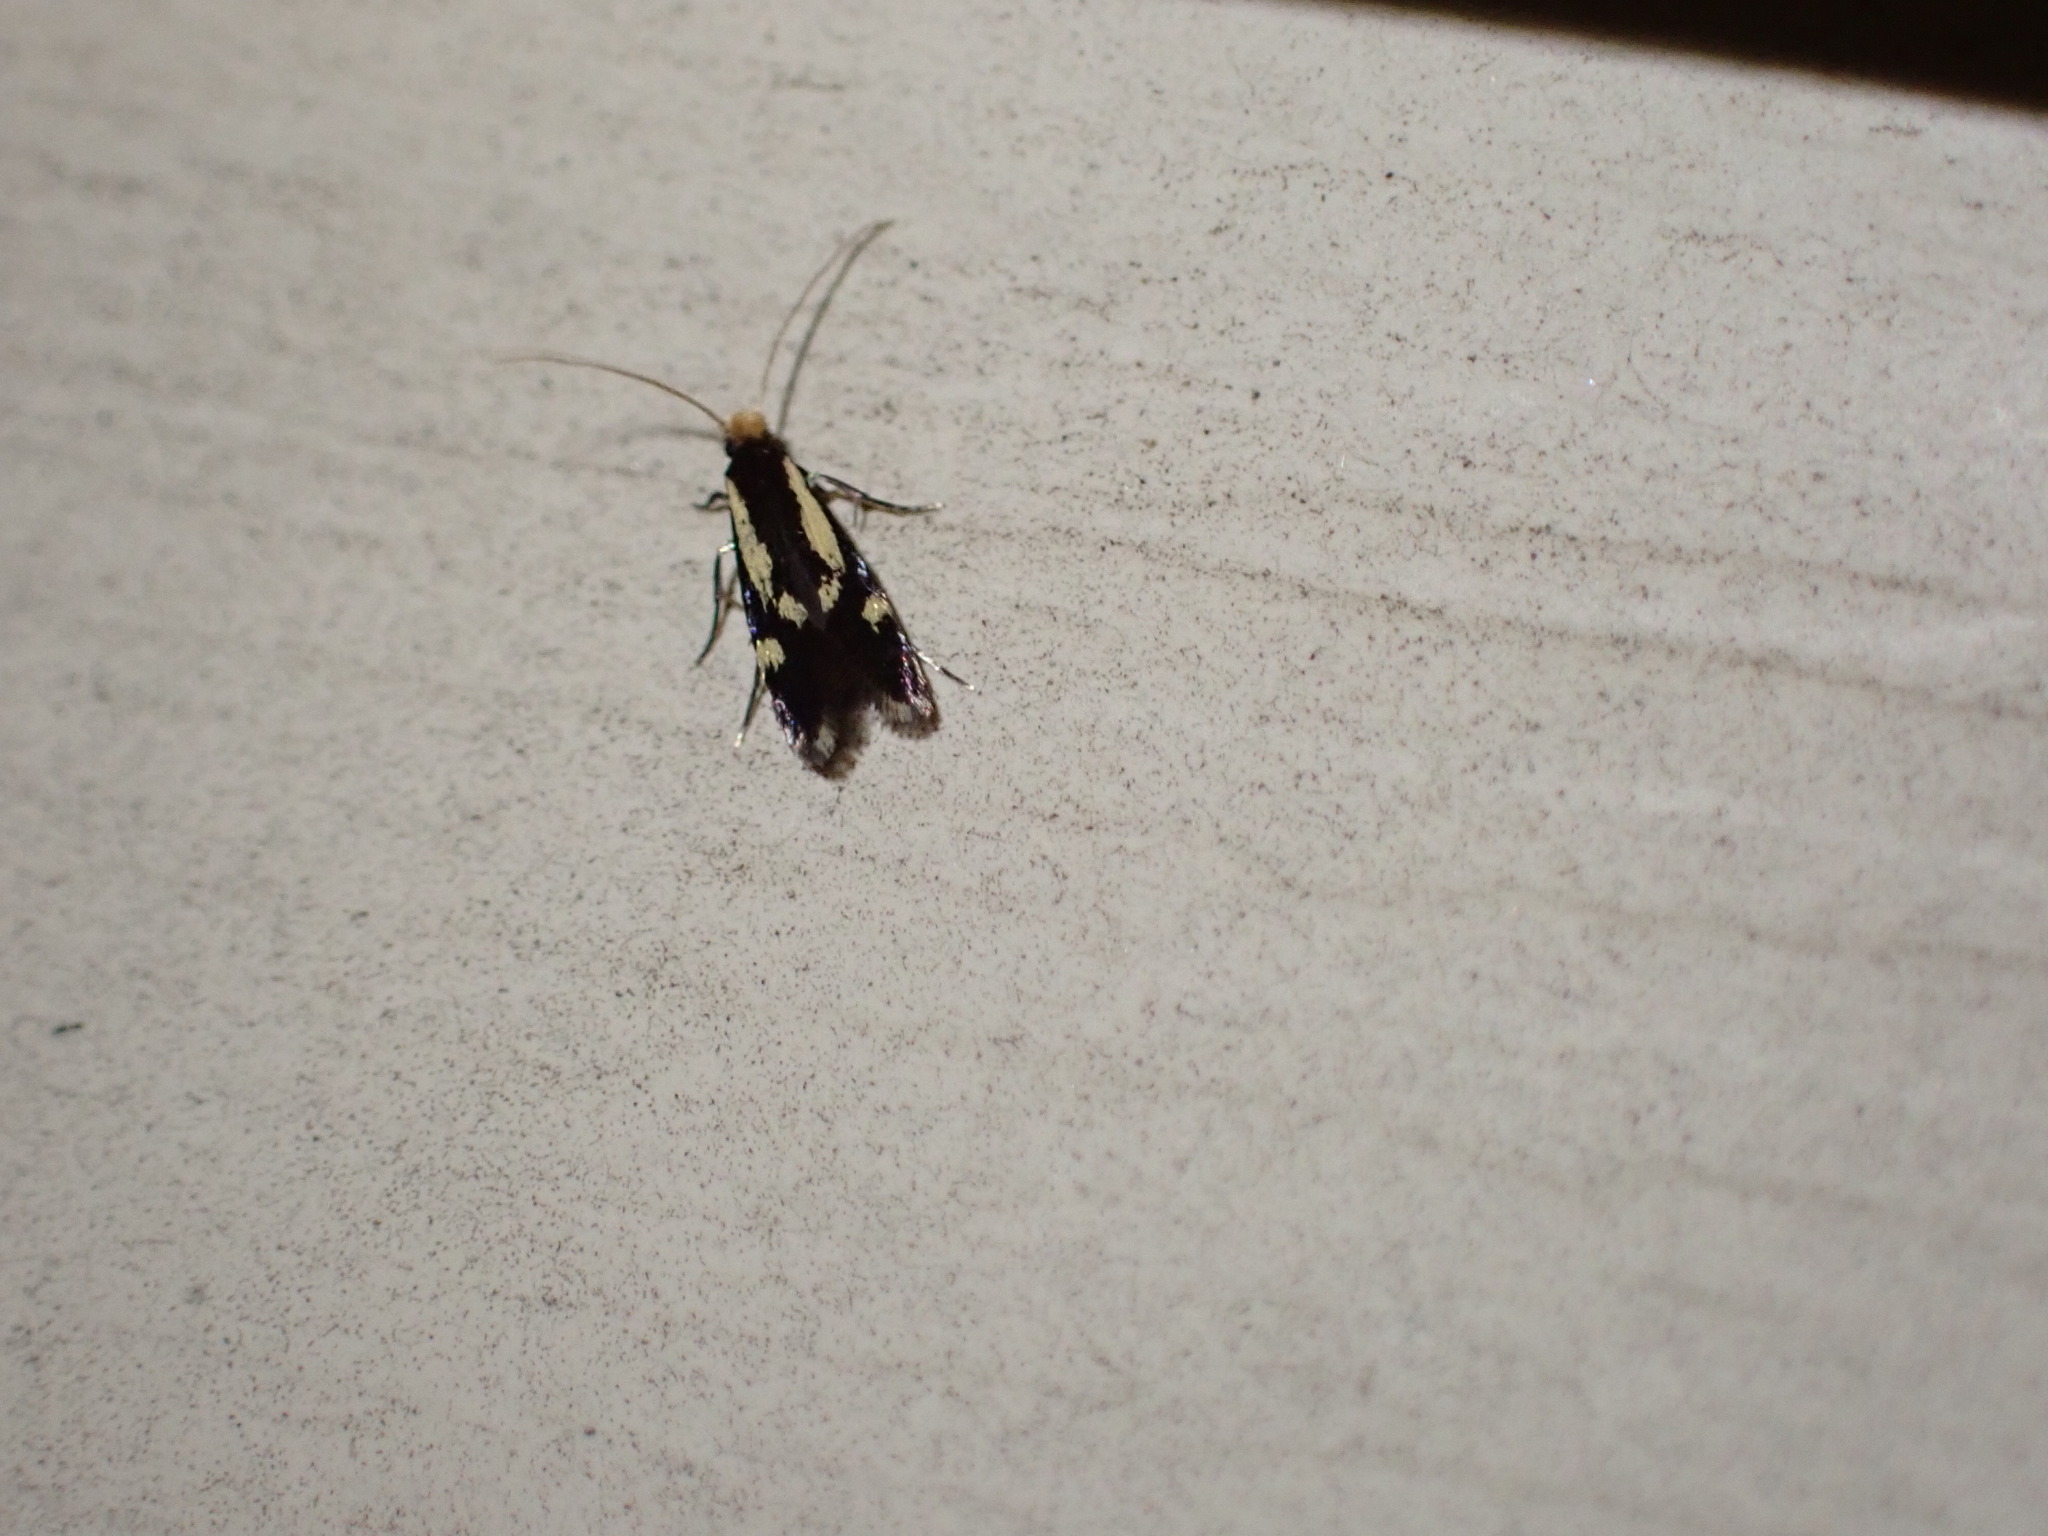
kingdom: Animalia
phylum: Arthropoda
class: Insecta
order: Lepidoptera
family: Meessiidae
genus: Isocorypha
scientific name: Isocorypha mediostriatella
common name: Old gold isocorypha moth
